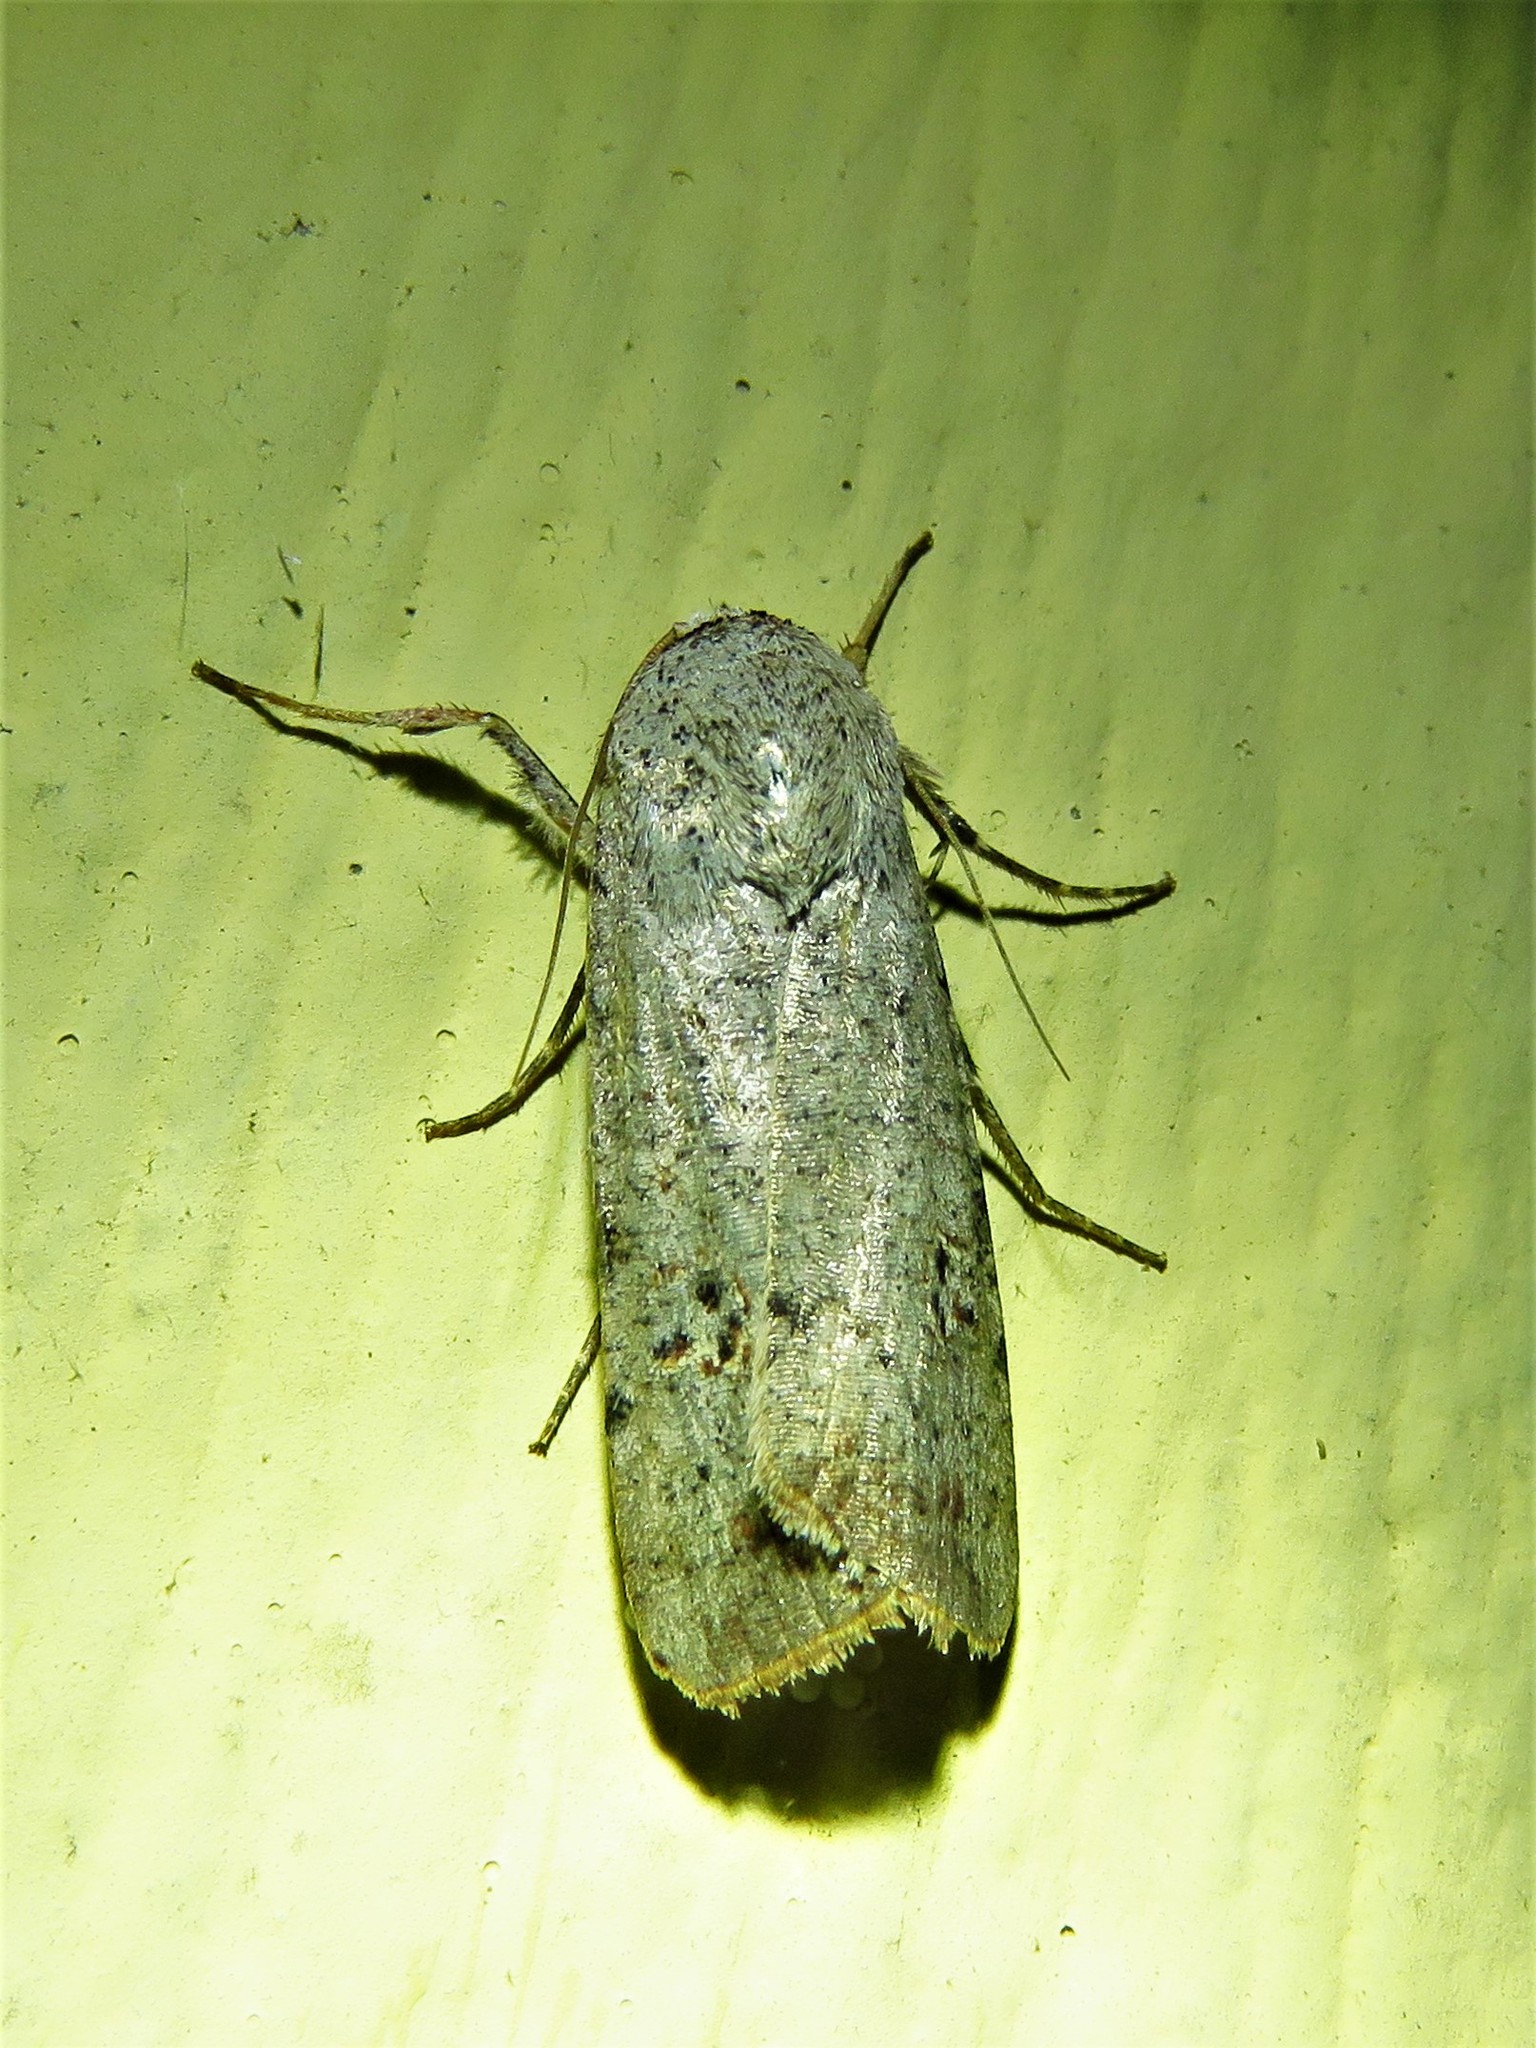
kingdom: Animalia
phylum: Arthropoda
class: Insecta
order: Lepidoptera
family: Noctuidae
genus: Anicla
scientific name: Anicla infecta
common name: Green cutworm
